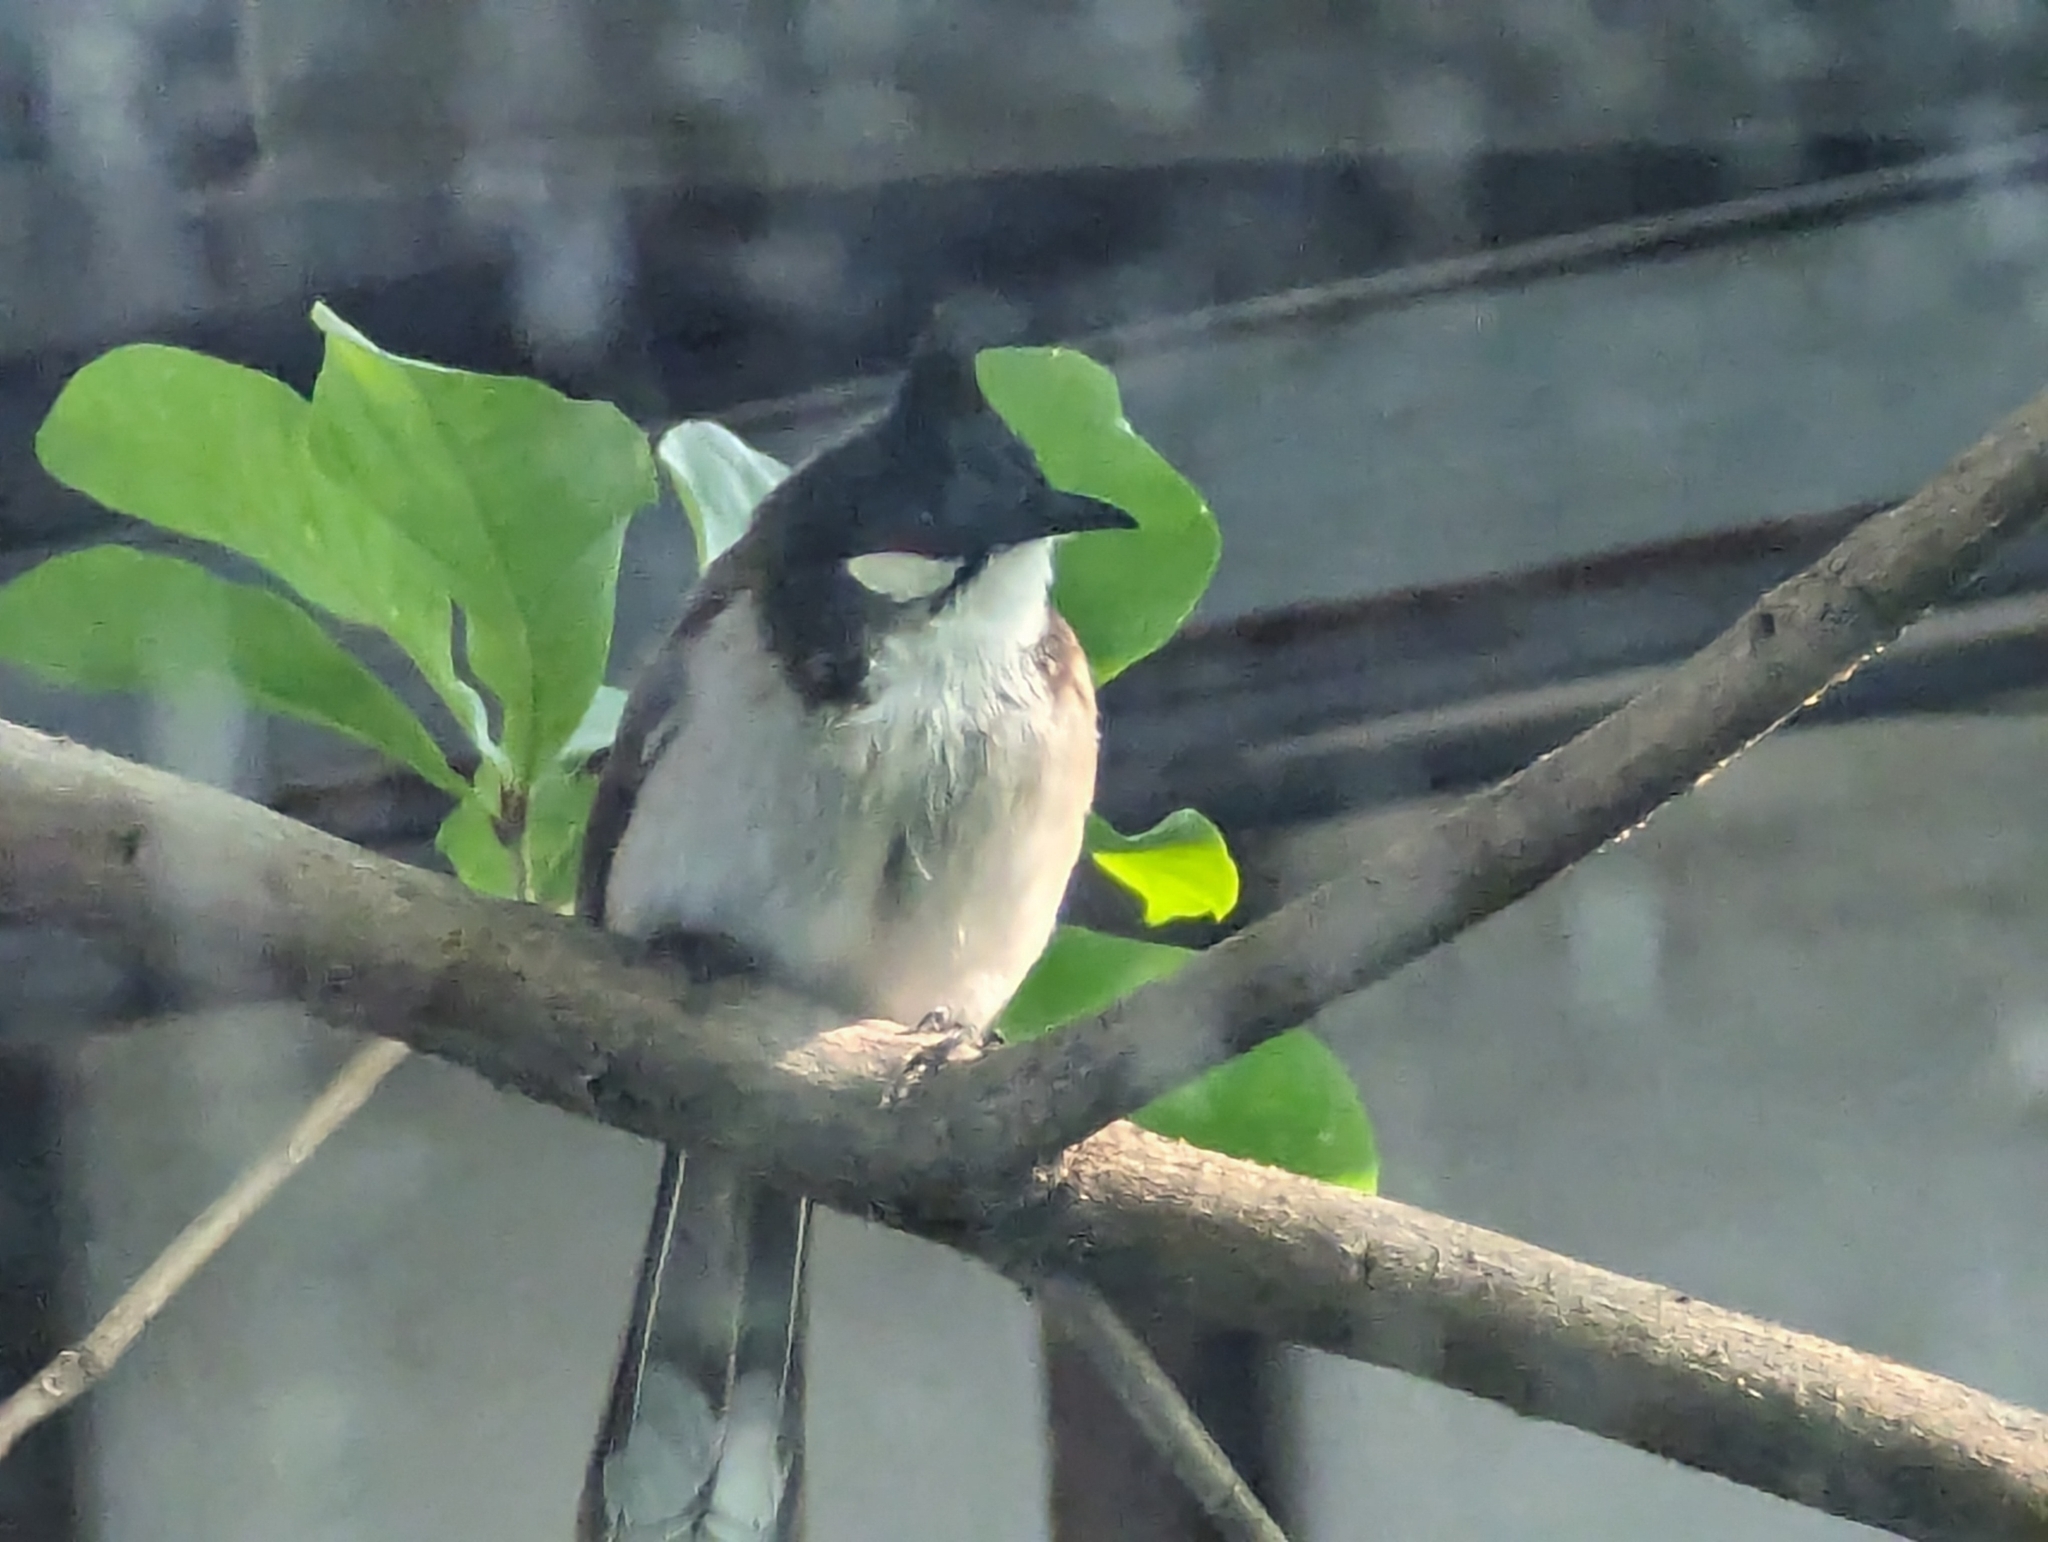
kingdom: Animalia
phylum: Chordata
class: Aves
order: Passeriformes
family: Pycnonotidae
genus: Pycnonotus
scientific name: Pycnonotus jocosus
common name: Red-whiskered bulbul
